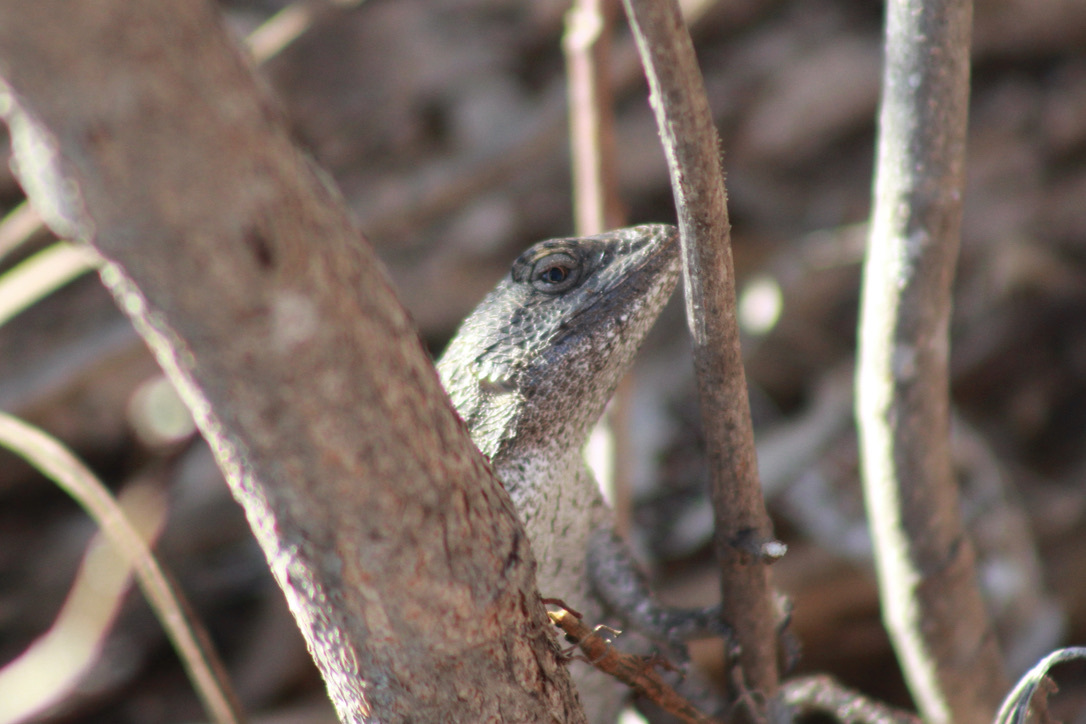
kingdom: Animalia
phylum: Chordata
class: Squamata
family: Phrynosomatidae
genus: Sceloporus
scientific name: Sceloporus olivaceus
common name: Texas spiny lizard
